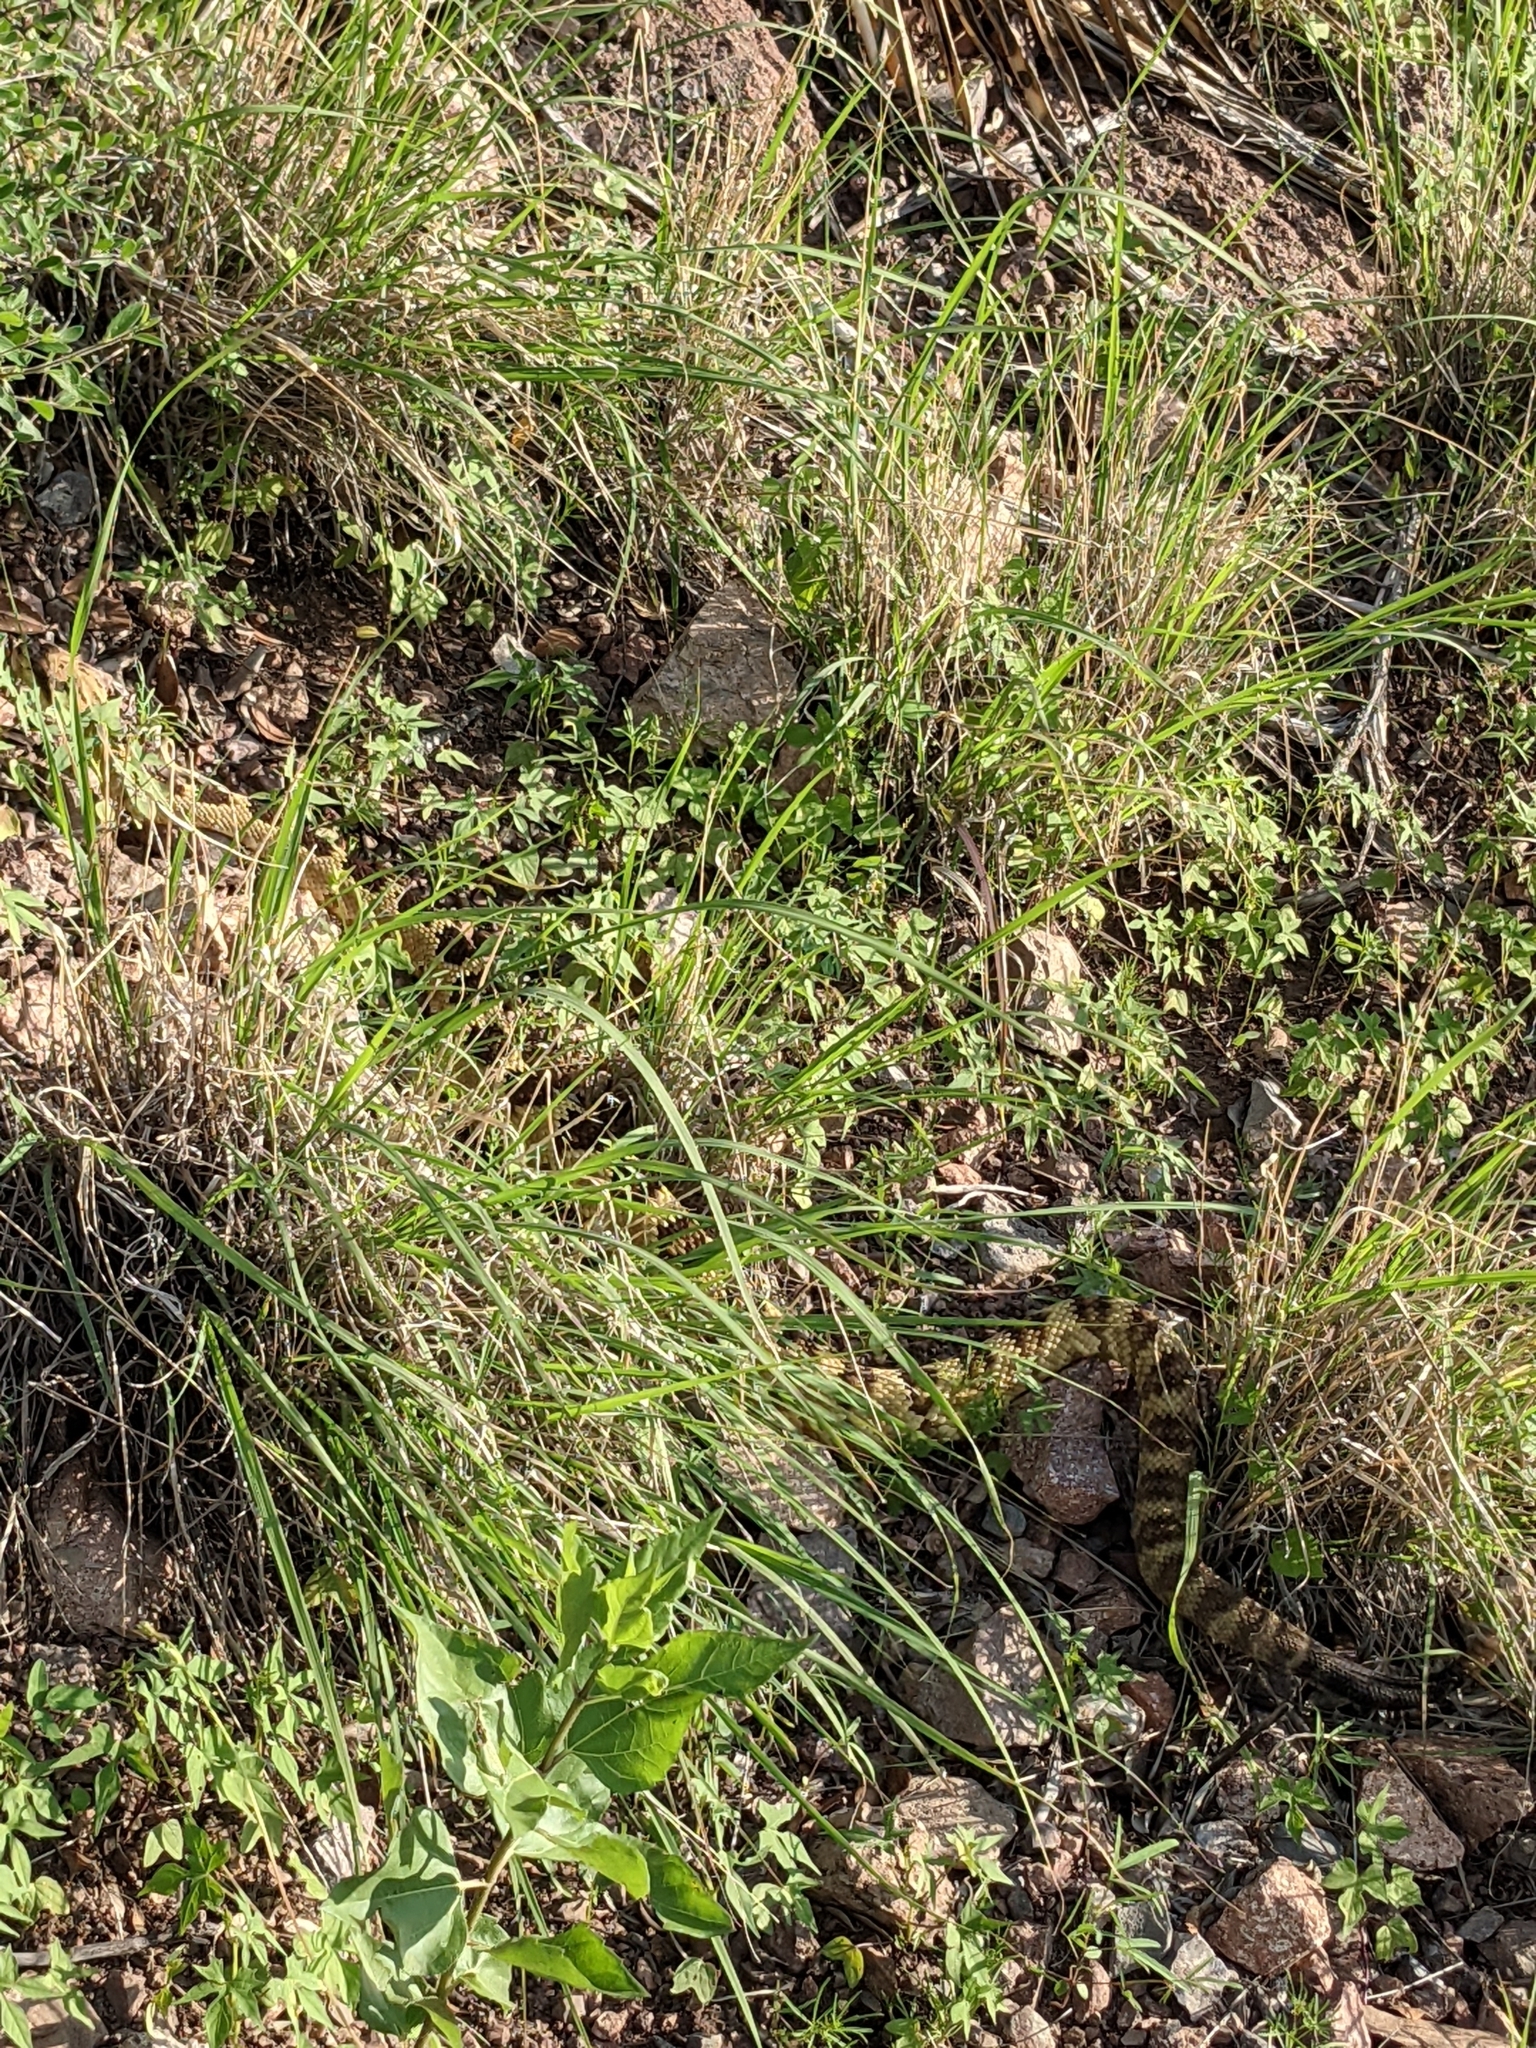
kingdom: Animalia
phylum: Chordata
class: Squamata
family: Viperidae
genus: Crotalus
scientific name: Crotalus molossus
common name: Black tailed rattlesnake
